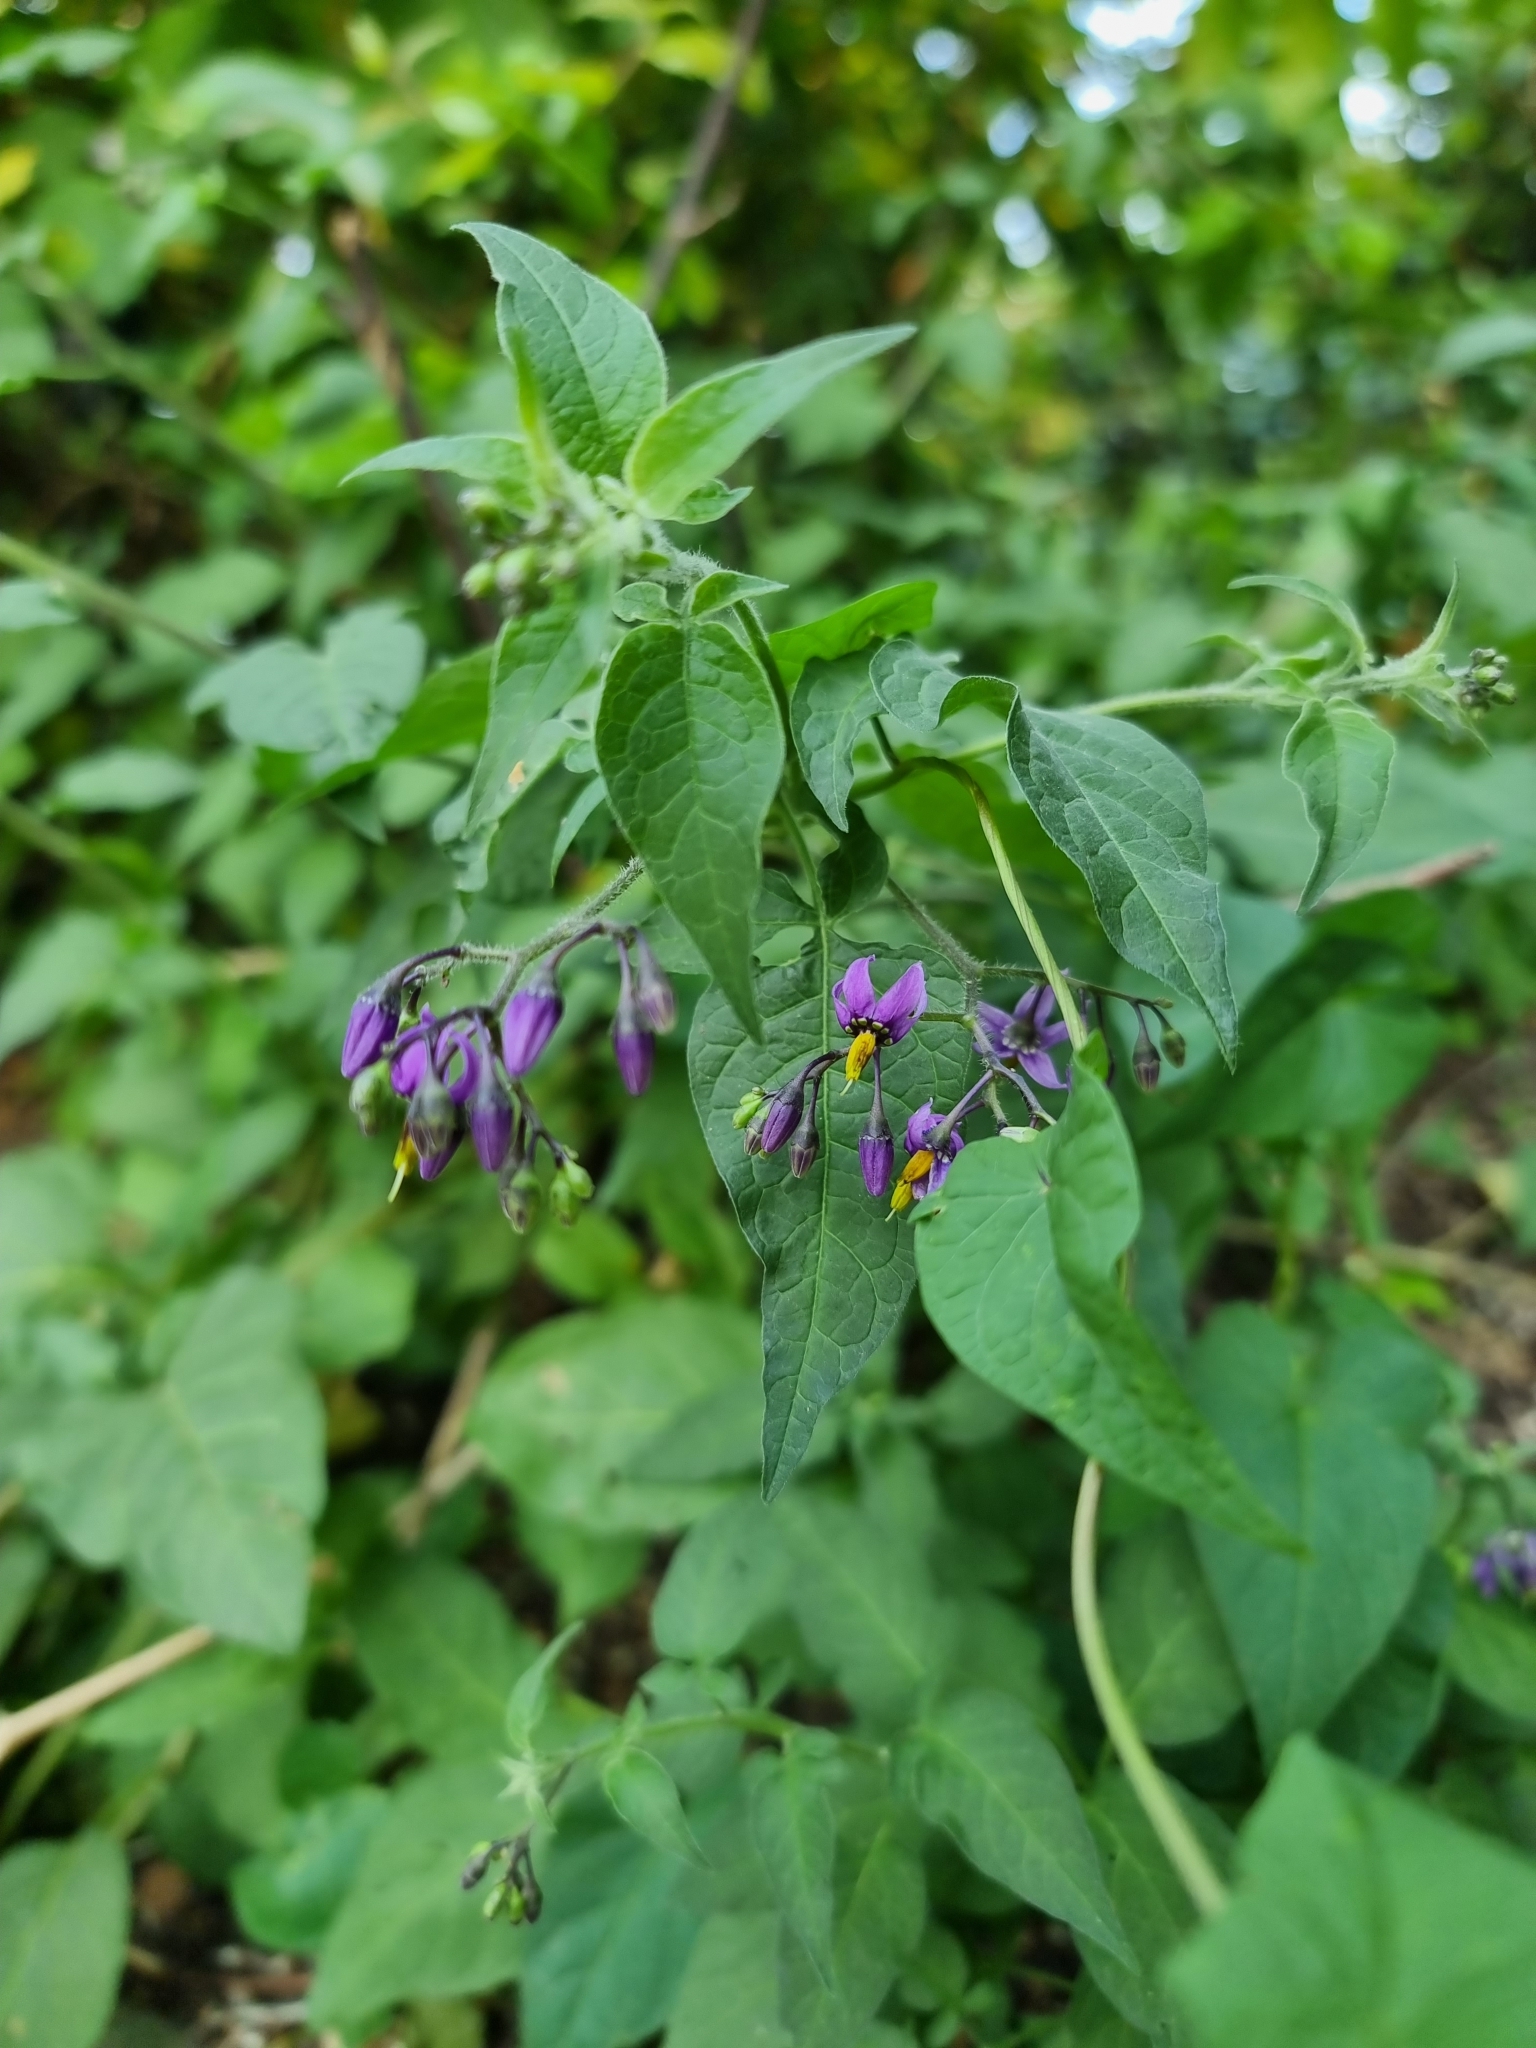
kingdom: Plantae
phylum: Tracheophyta
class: Magnoliopsida
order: Solanales
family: Solanaceae
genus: Solanum
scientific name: Solanum dulcamara
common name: Climbing nightshade
